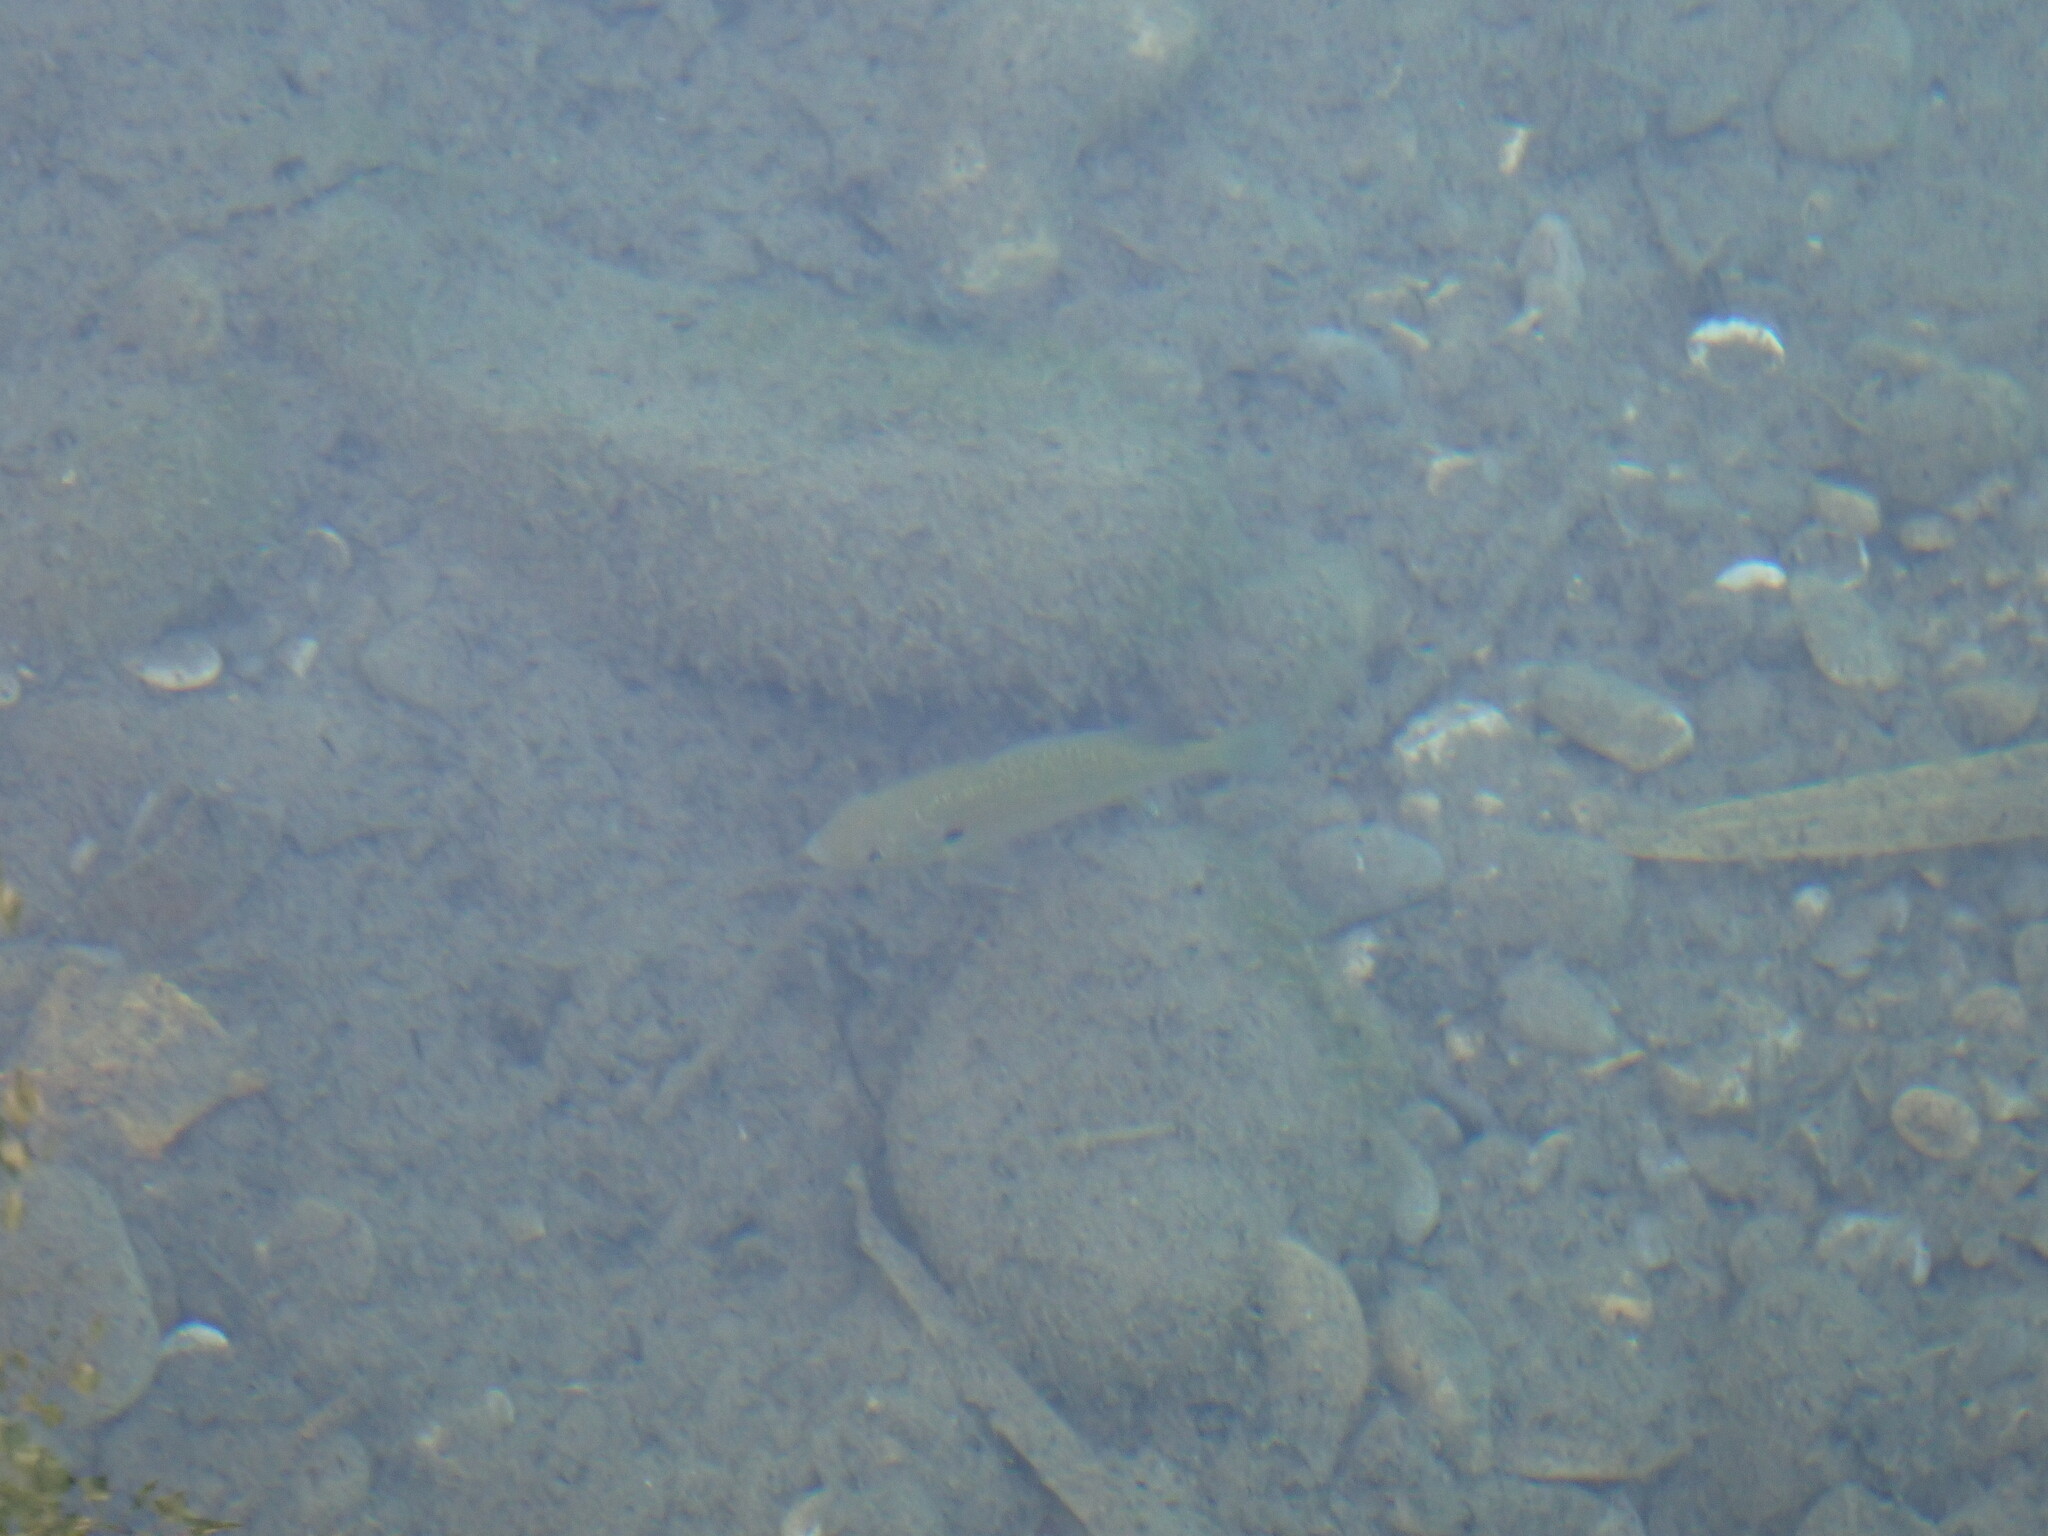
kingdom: Animalia
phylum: Chordata
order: Perciformes
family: Centrarchidae
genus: Lepomis
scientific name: Lepomis gibbosus
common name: Pumpkinseed
